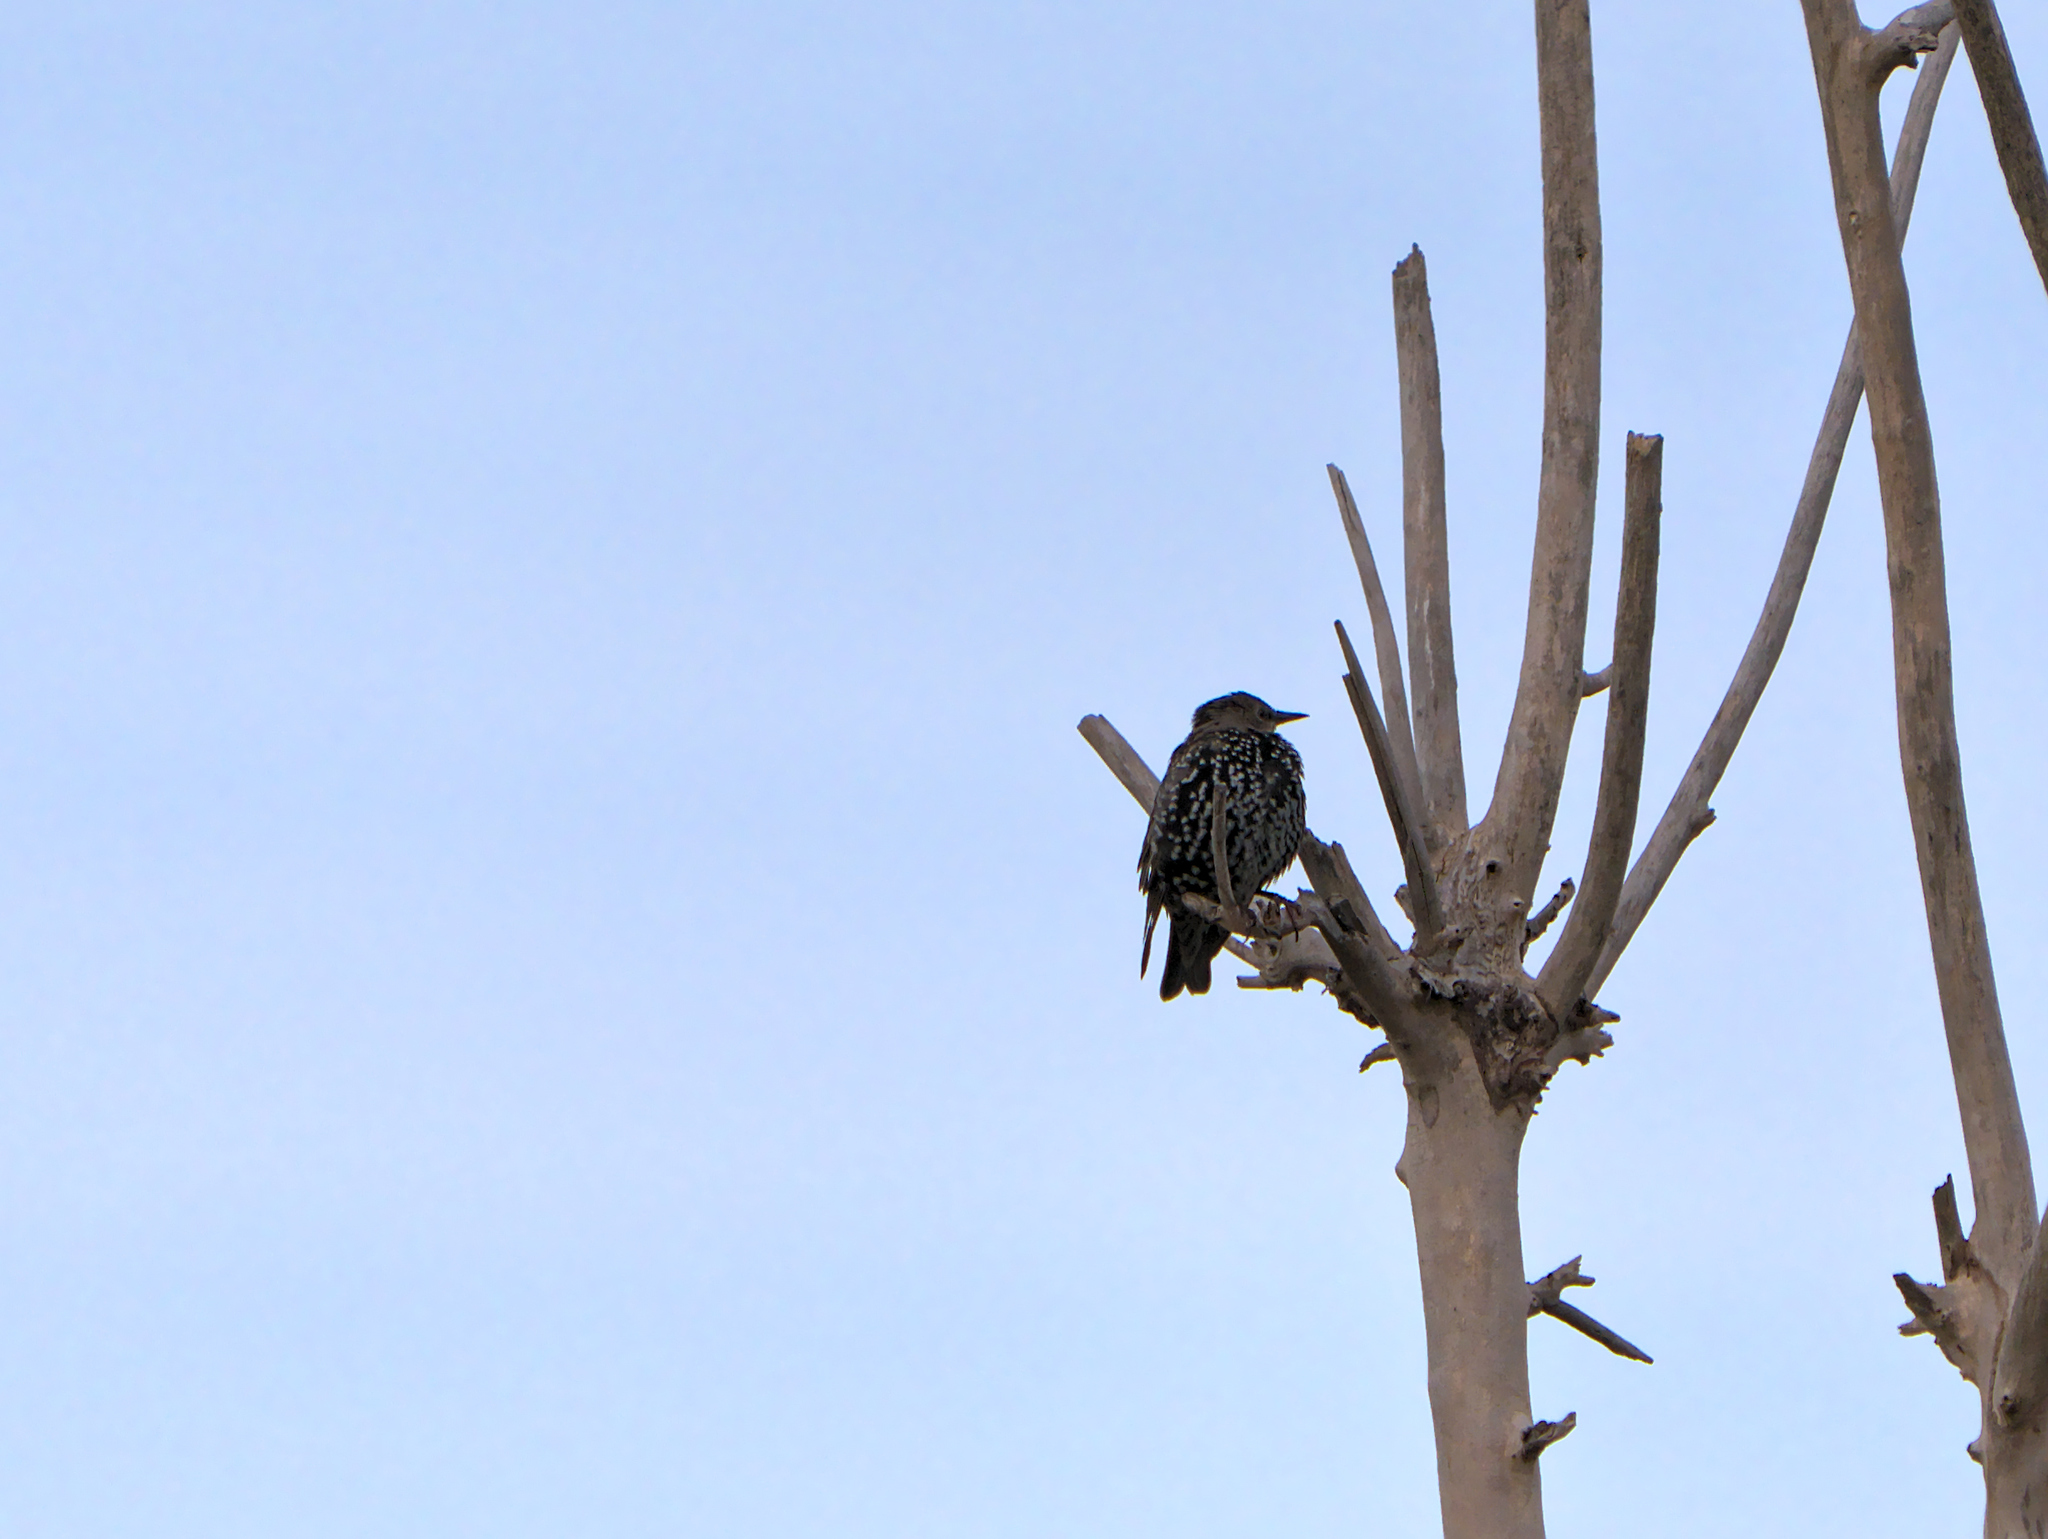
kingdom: Animalia
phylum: Chordata
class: Aves
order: Passeriformes
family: Sturnidae
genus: Sturnus
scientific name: Sturnus vulgaris
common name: Common starling
